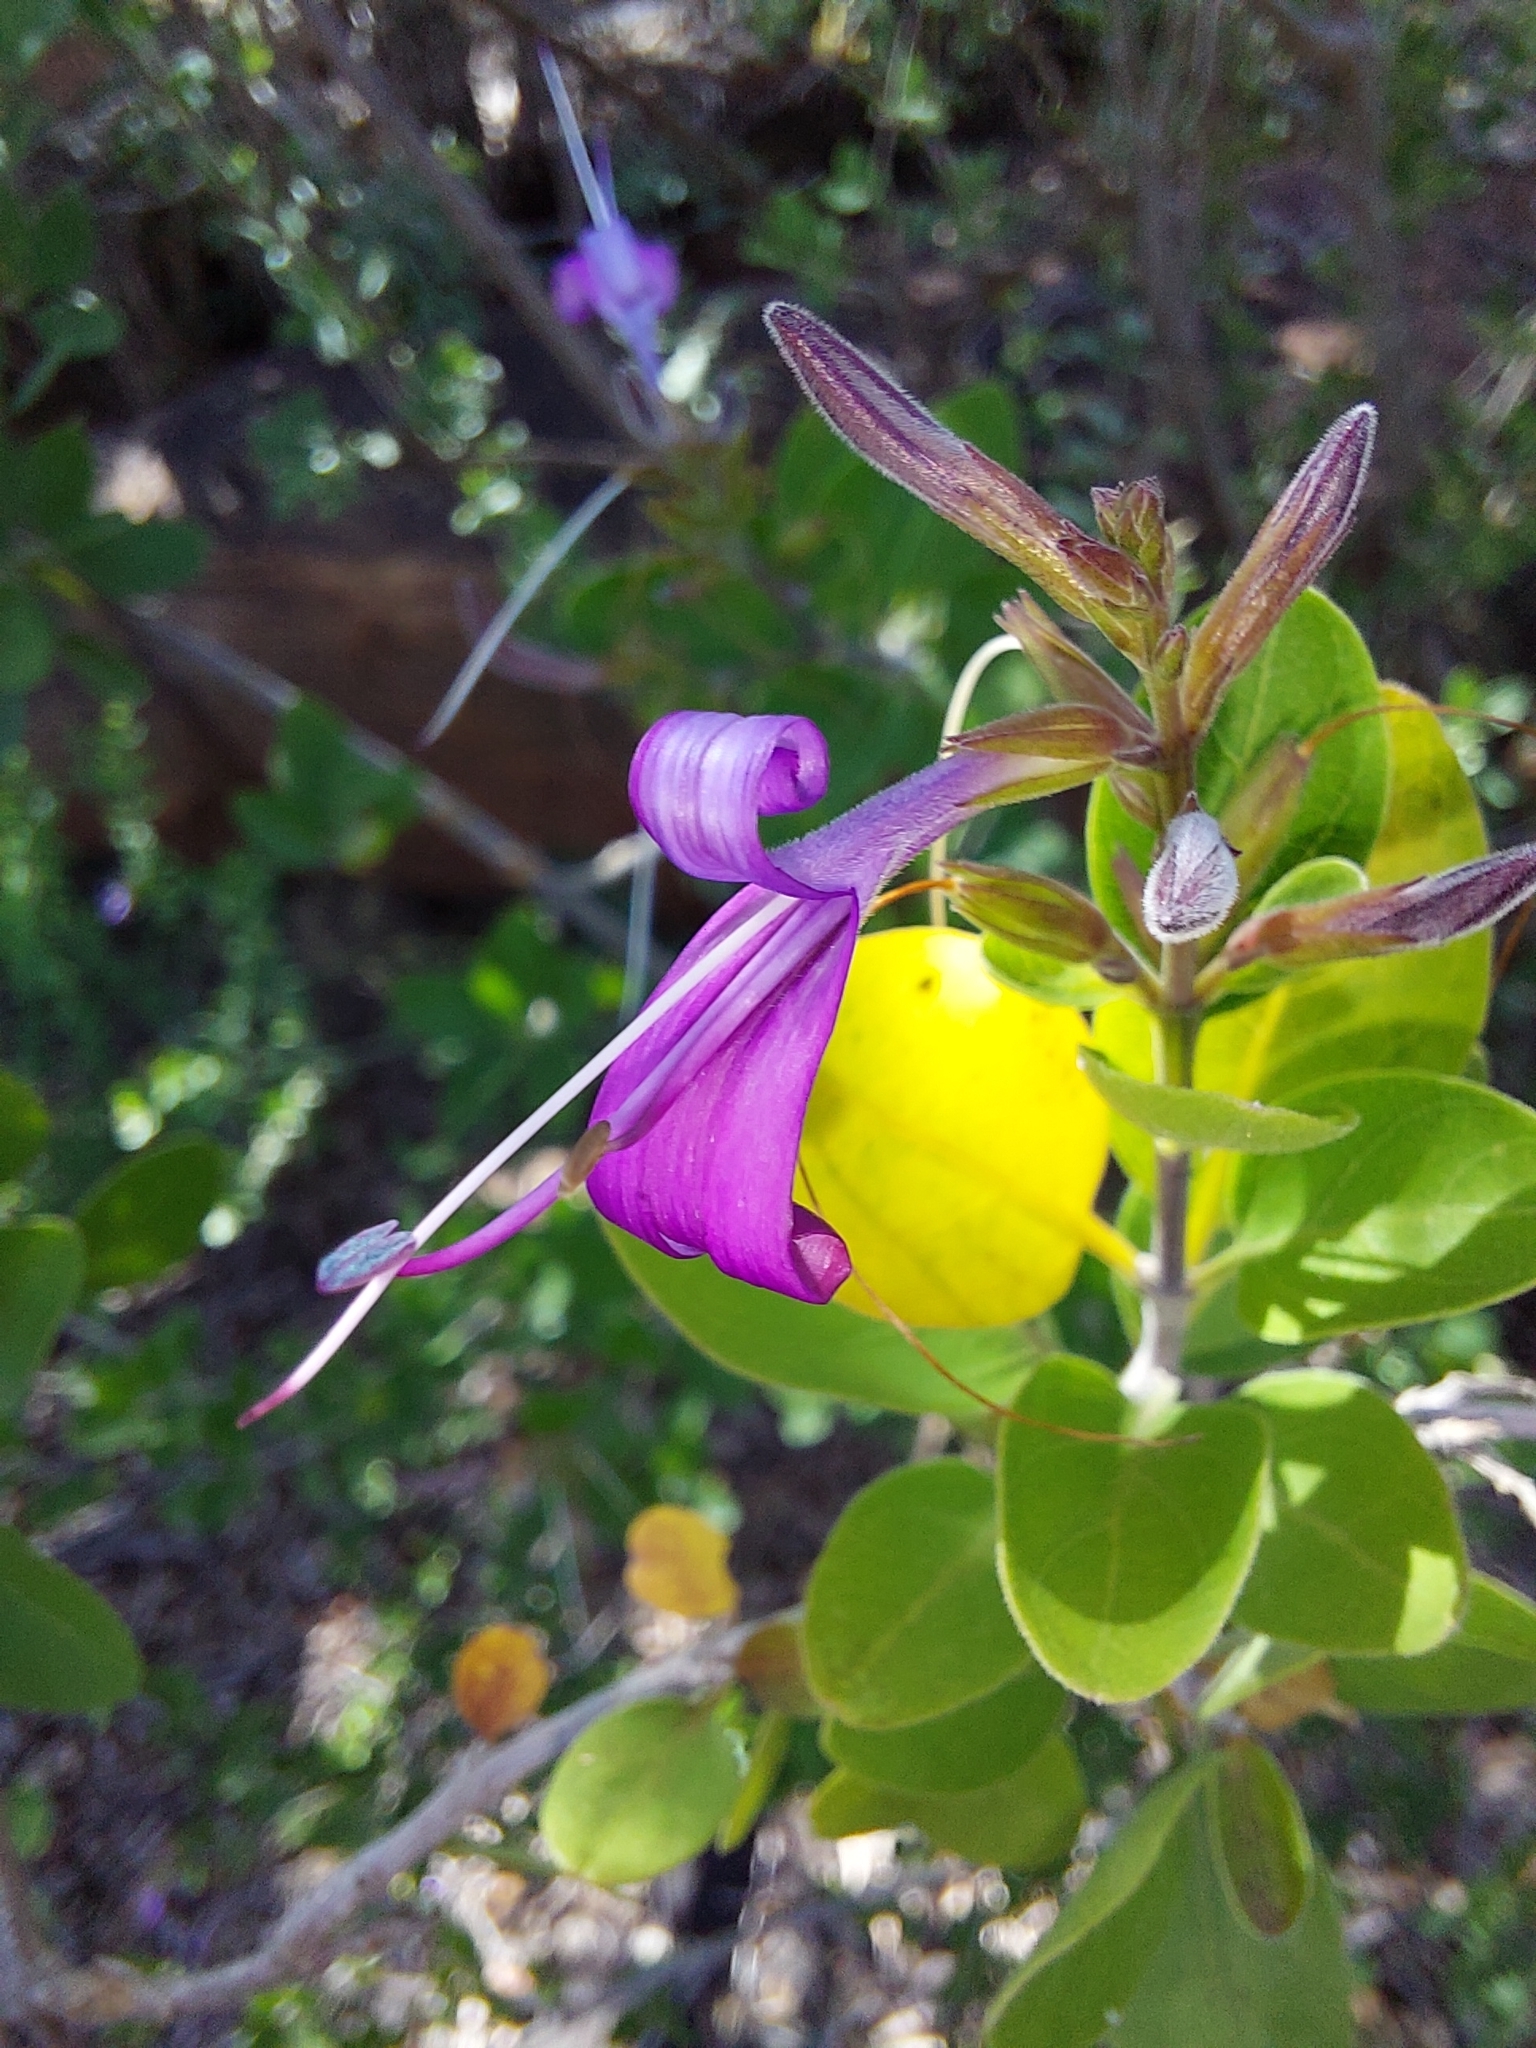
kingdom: Plantae
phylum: Tracheophyta
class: Magnoliopsida
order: Lamiales
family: Acanthaceae
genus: Chorisochora
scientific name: Chorisochora transvaalensis
